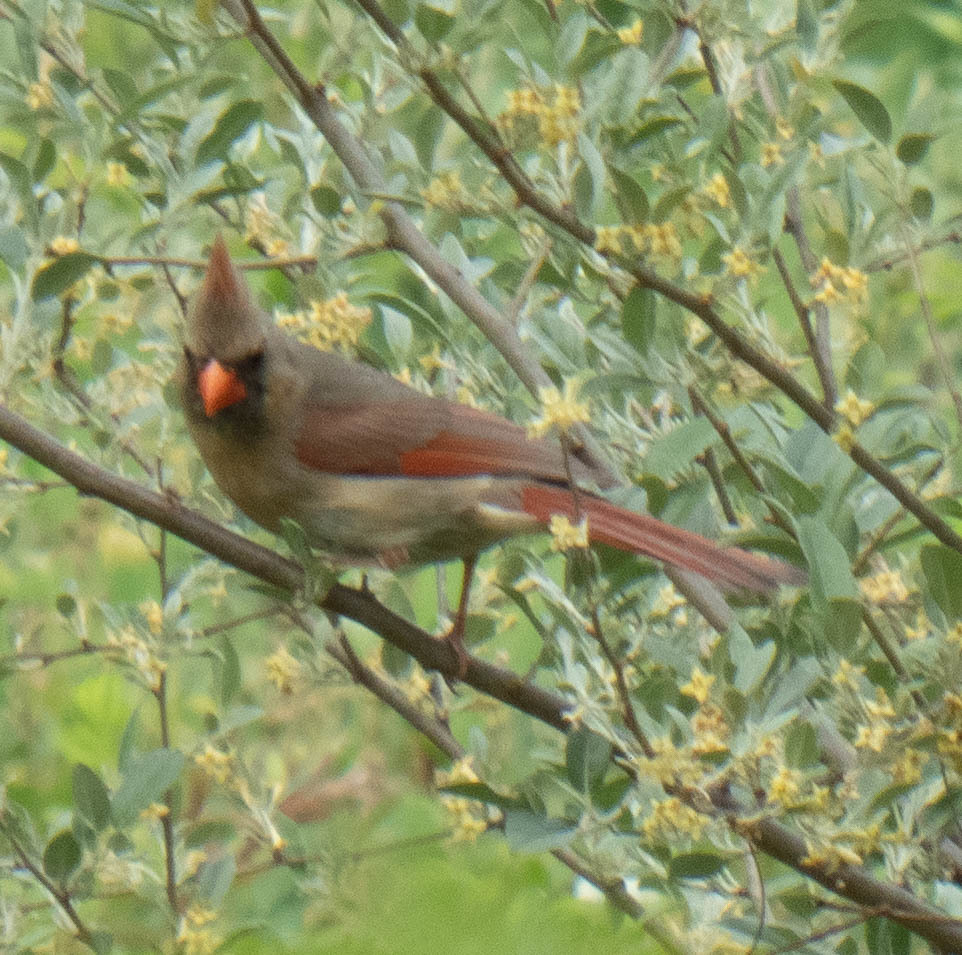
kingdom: Animalia
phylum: Chordata
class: Aves
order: Passeriformes
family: Cardinalidae
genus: Cardinalis
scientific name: Cardinalis cardinalis
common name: Northern cardinal
